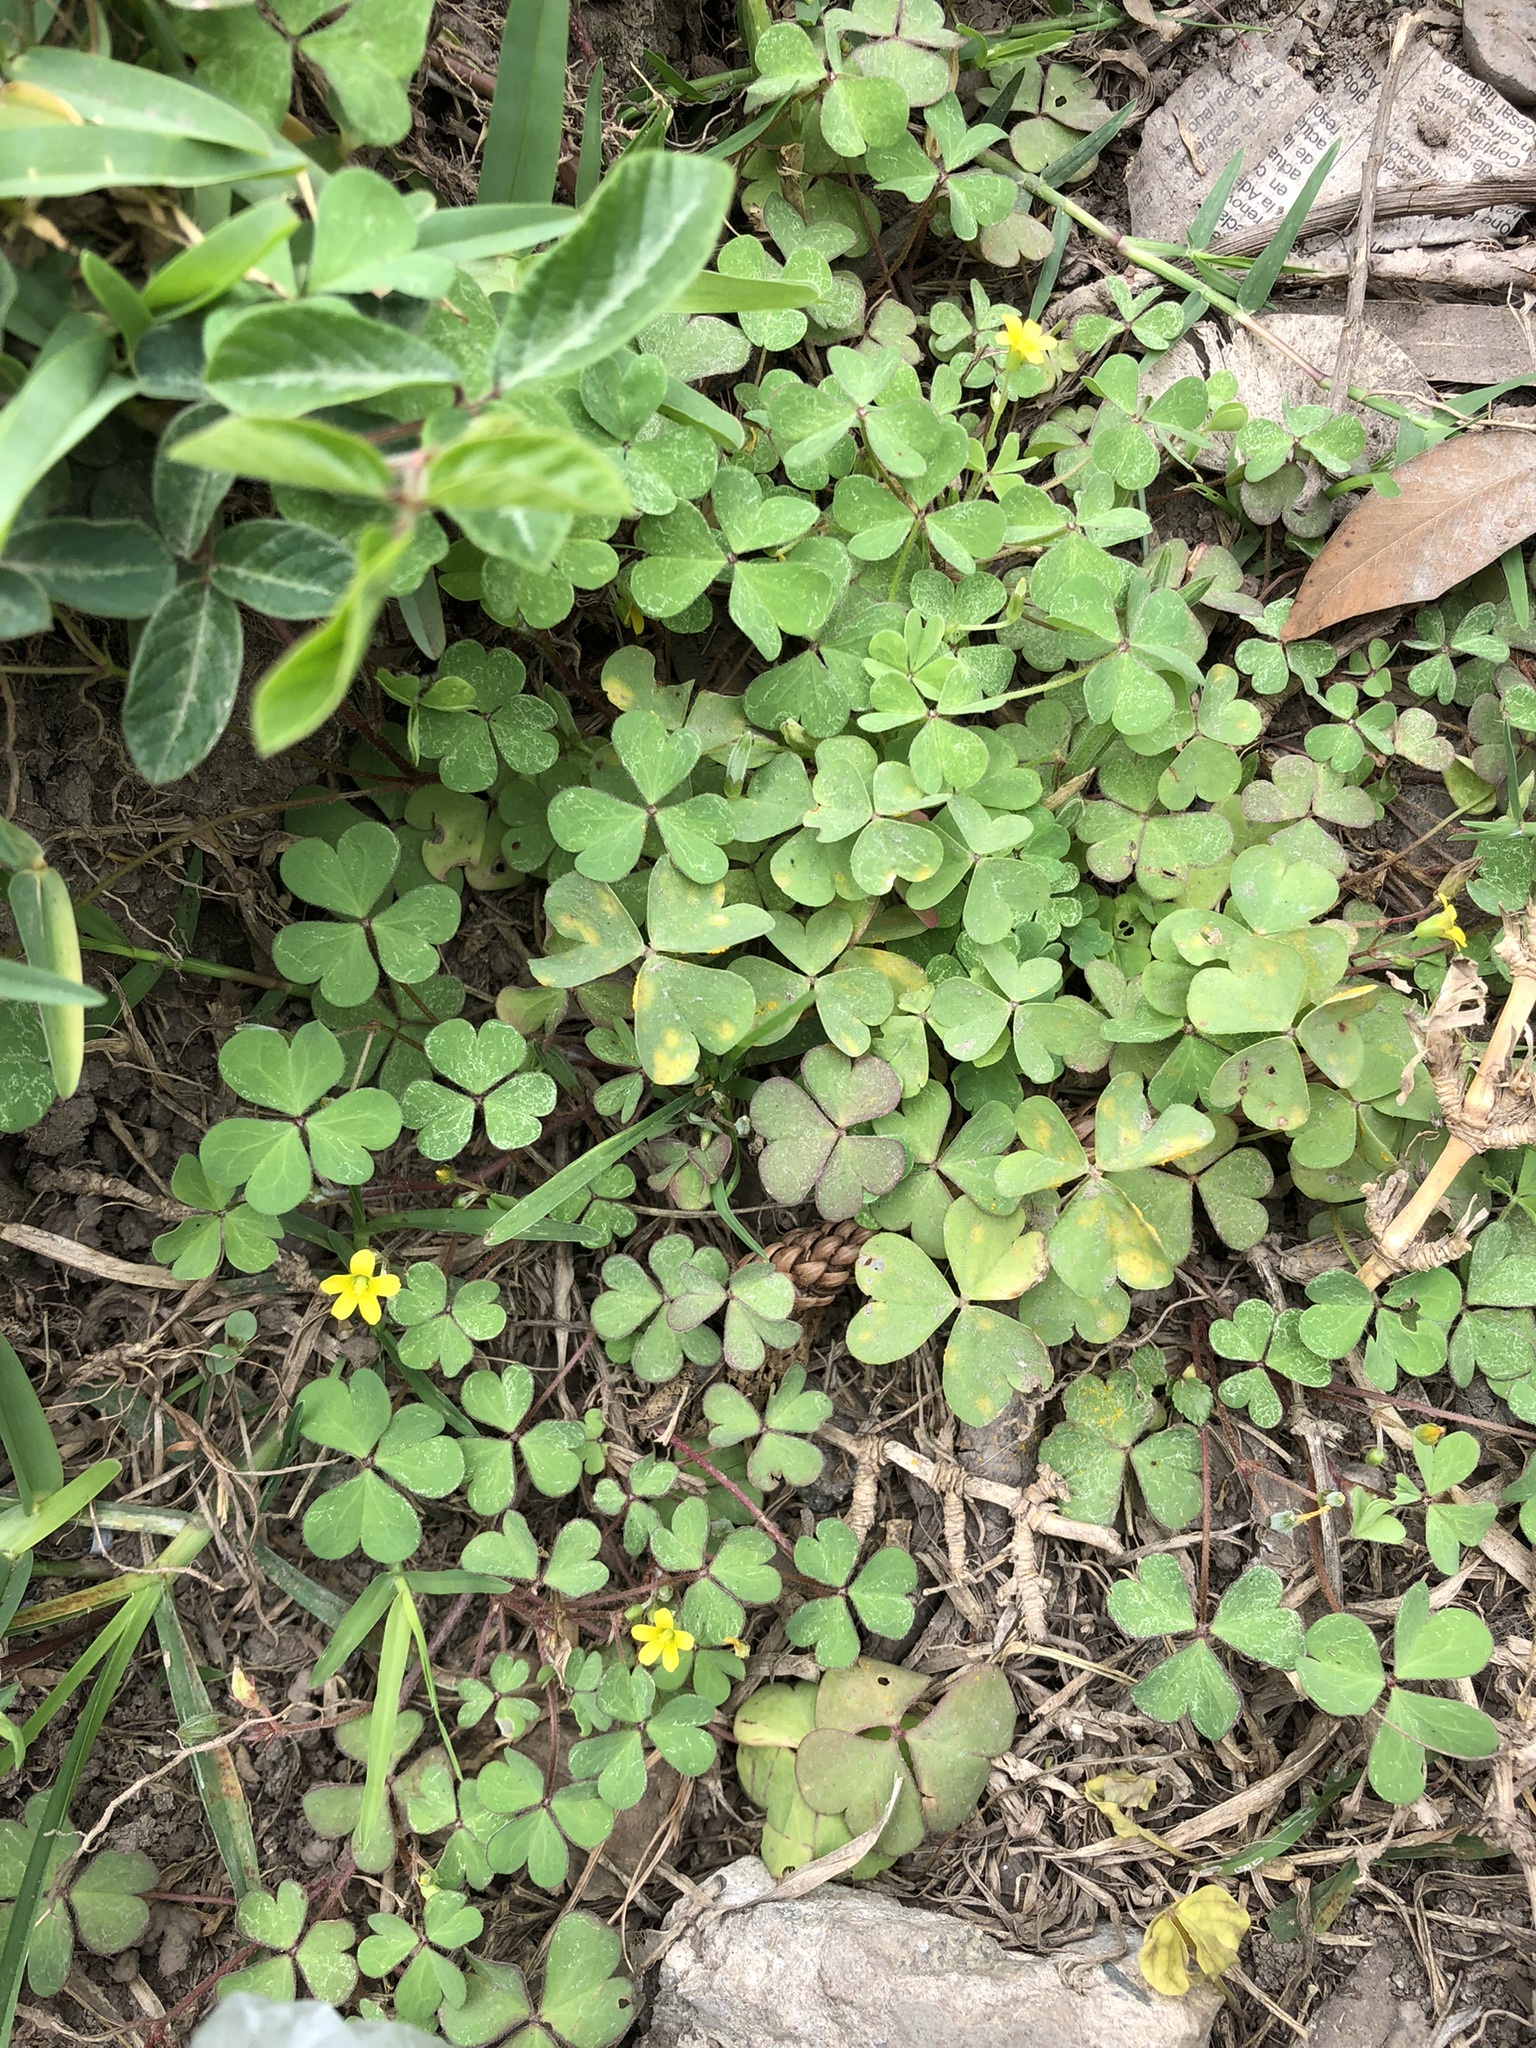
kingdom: Plantae
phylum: Tracheophyta
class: Magnoliopsida
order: Oxalidales
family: Oxalidaceae
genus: Oxalis
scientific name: Oxalis corniculata
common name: Procumbent yellow-sorrel
